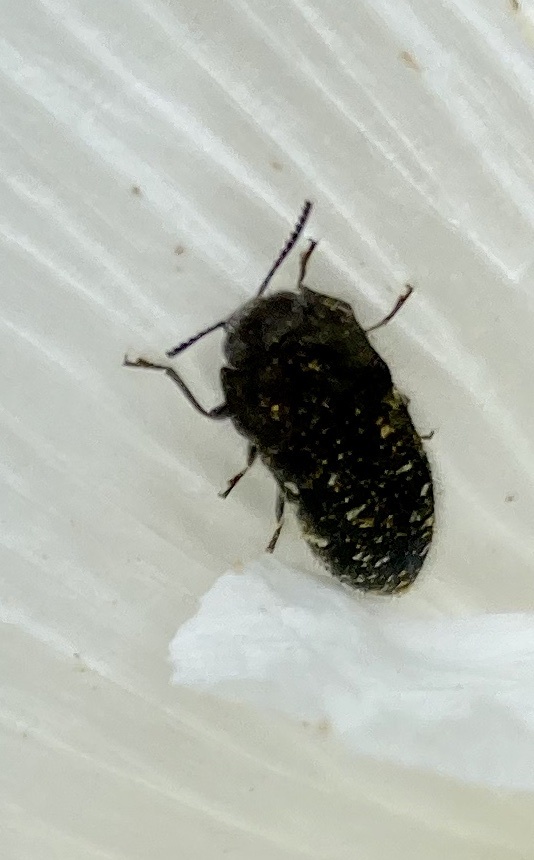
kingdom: Animalia
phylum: Arthropoda
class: Insecta
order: Coleoptera
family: Buprestidae
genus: Acmaeodera
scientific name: Acmaeodera ornatoides
